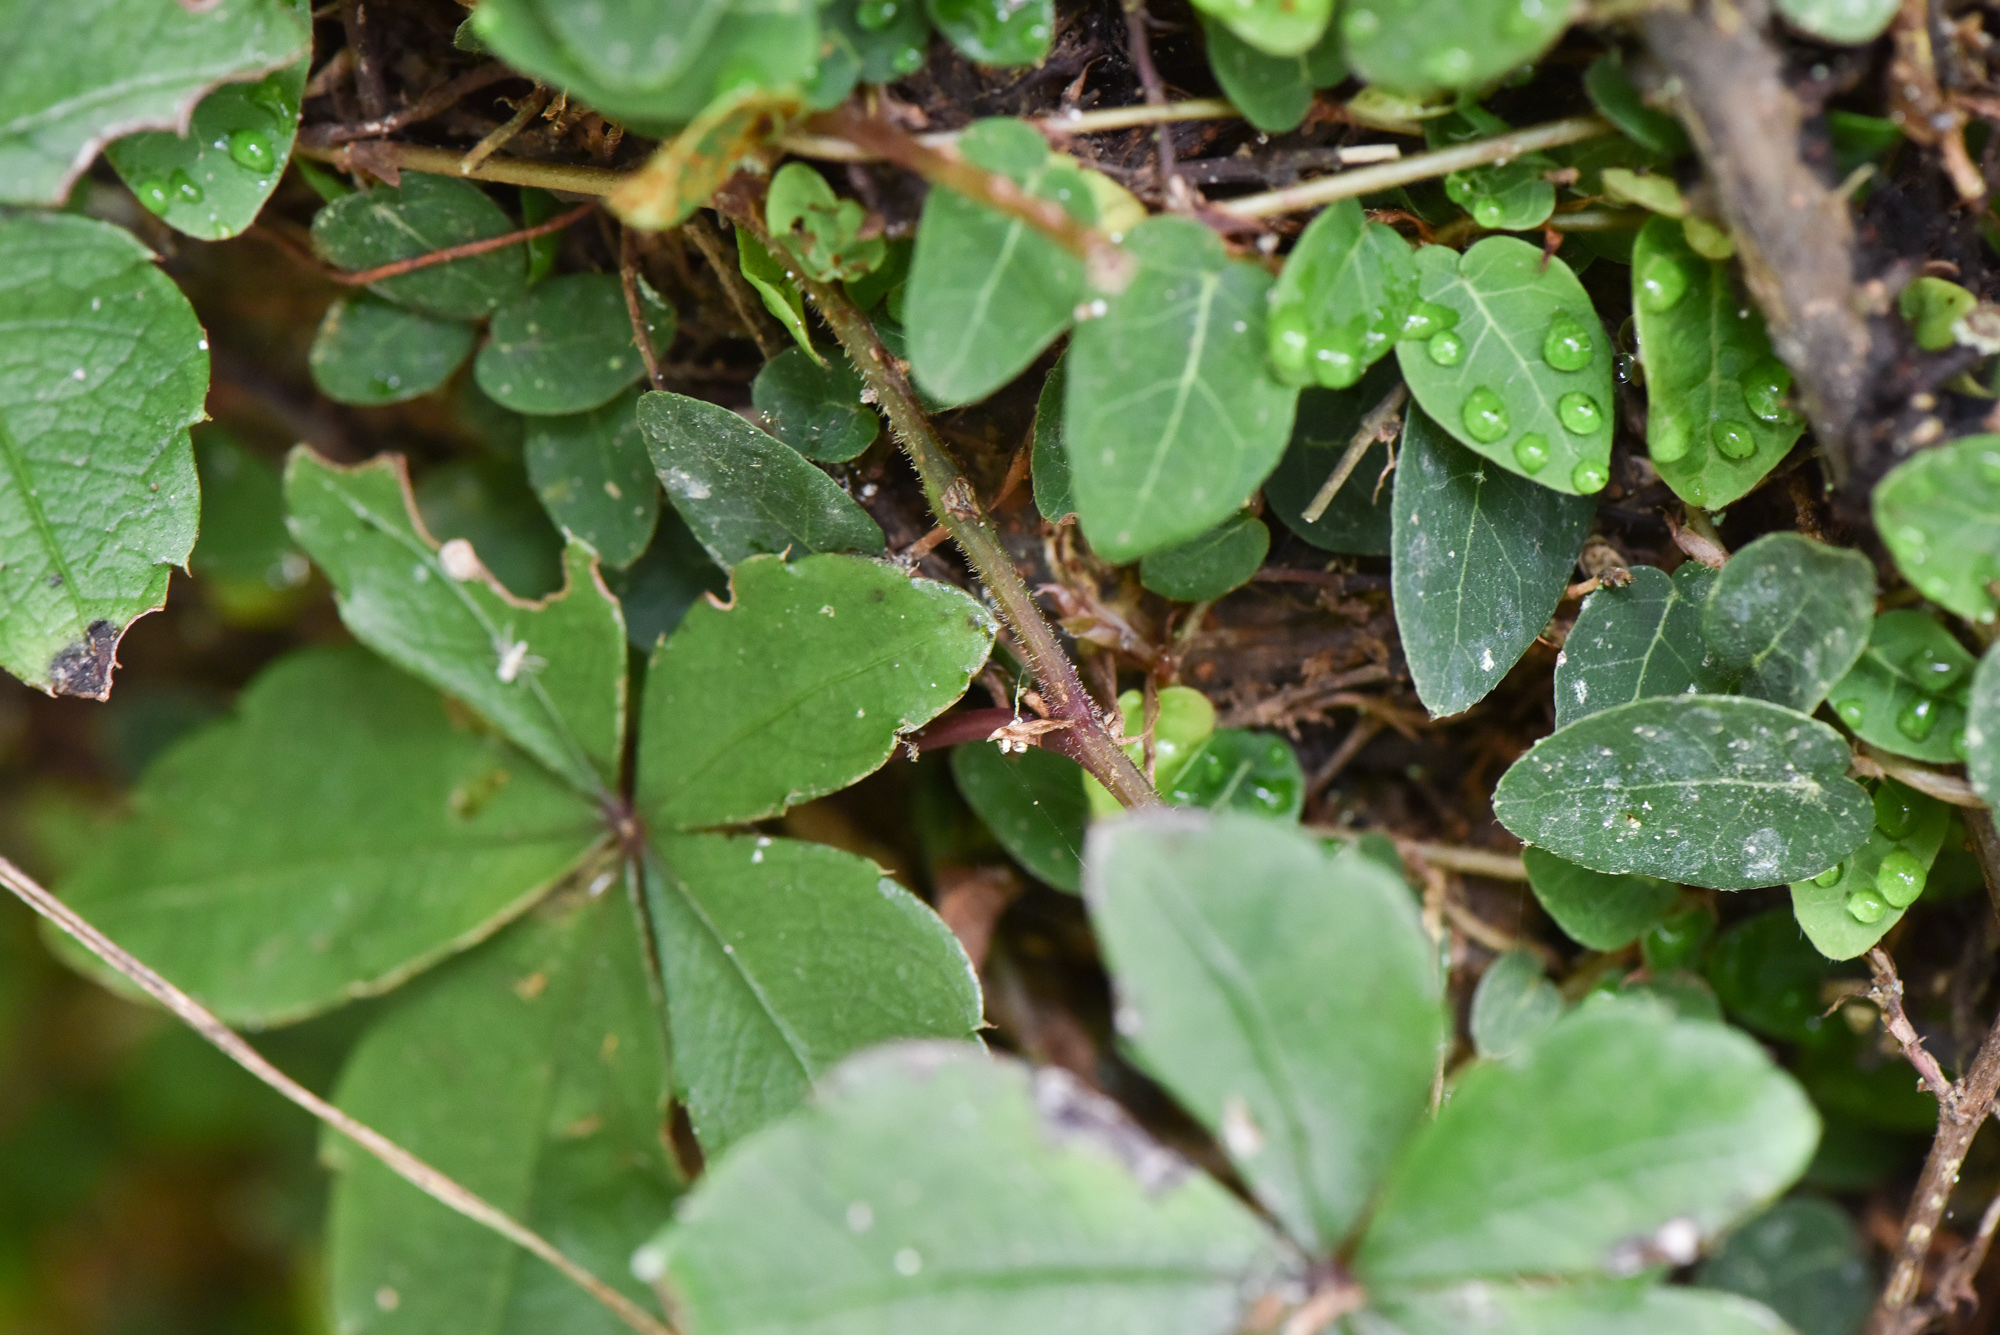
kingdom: Plantae
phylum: Tracheophyta
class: Magnoliopsida
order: Vitales
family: Vitaceae
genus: Tetrastigma
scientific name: Tetrastigma obtectum
